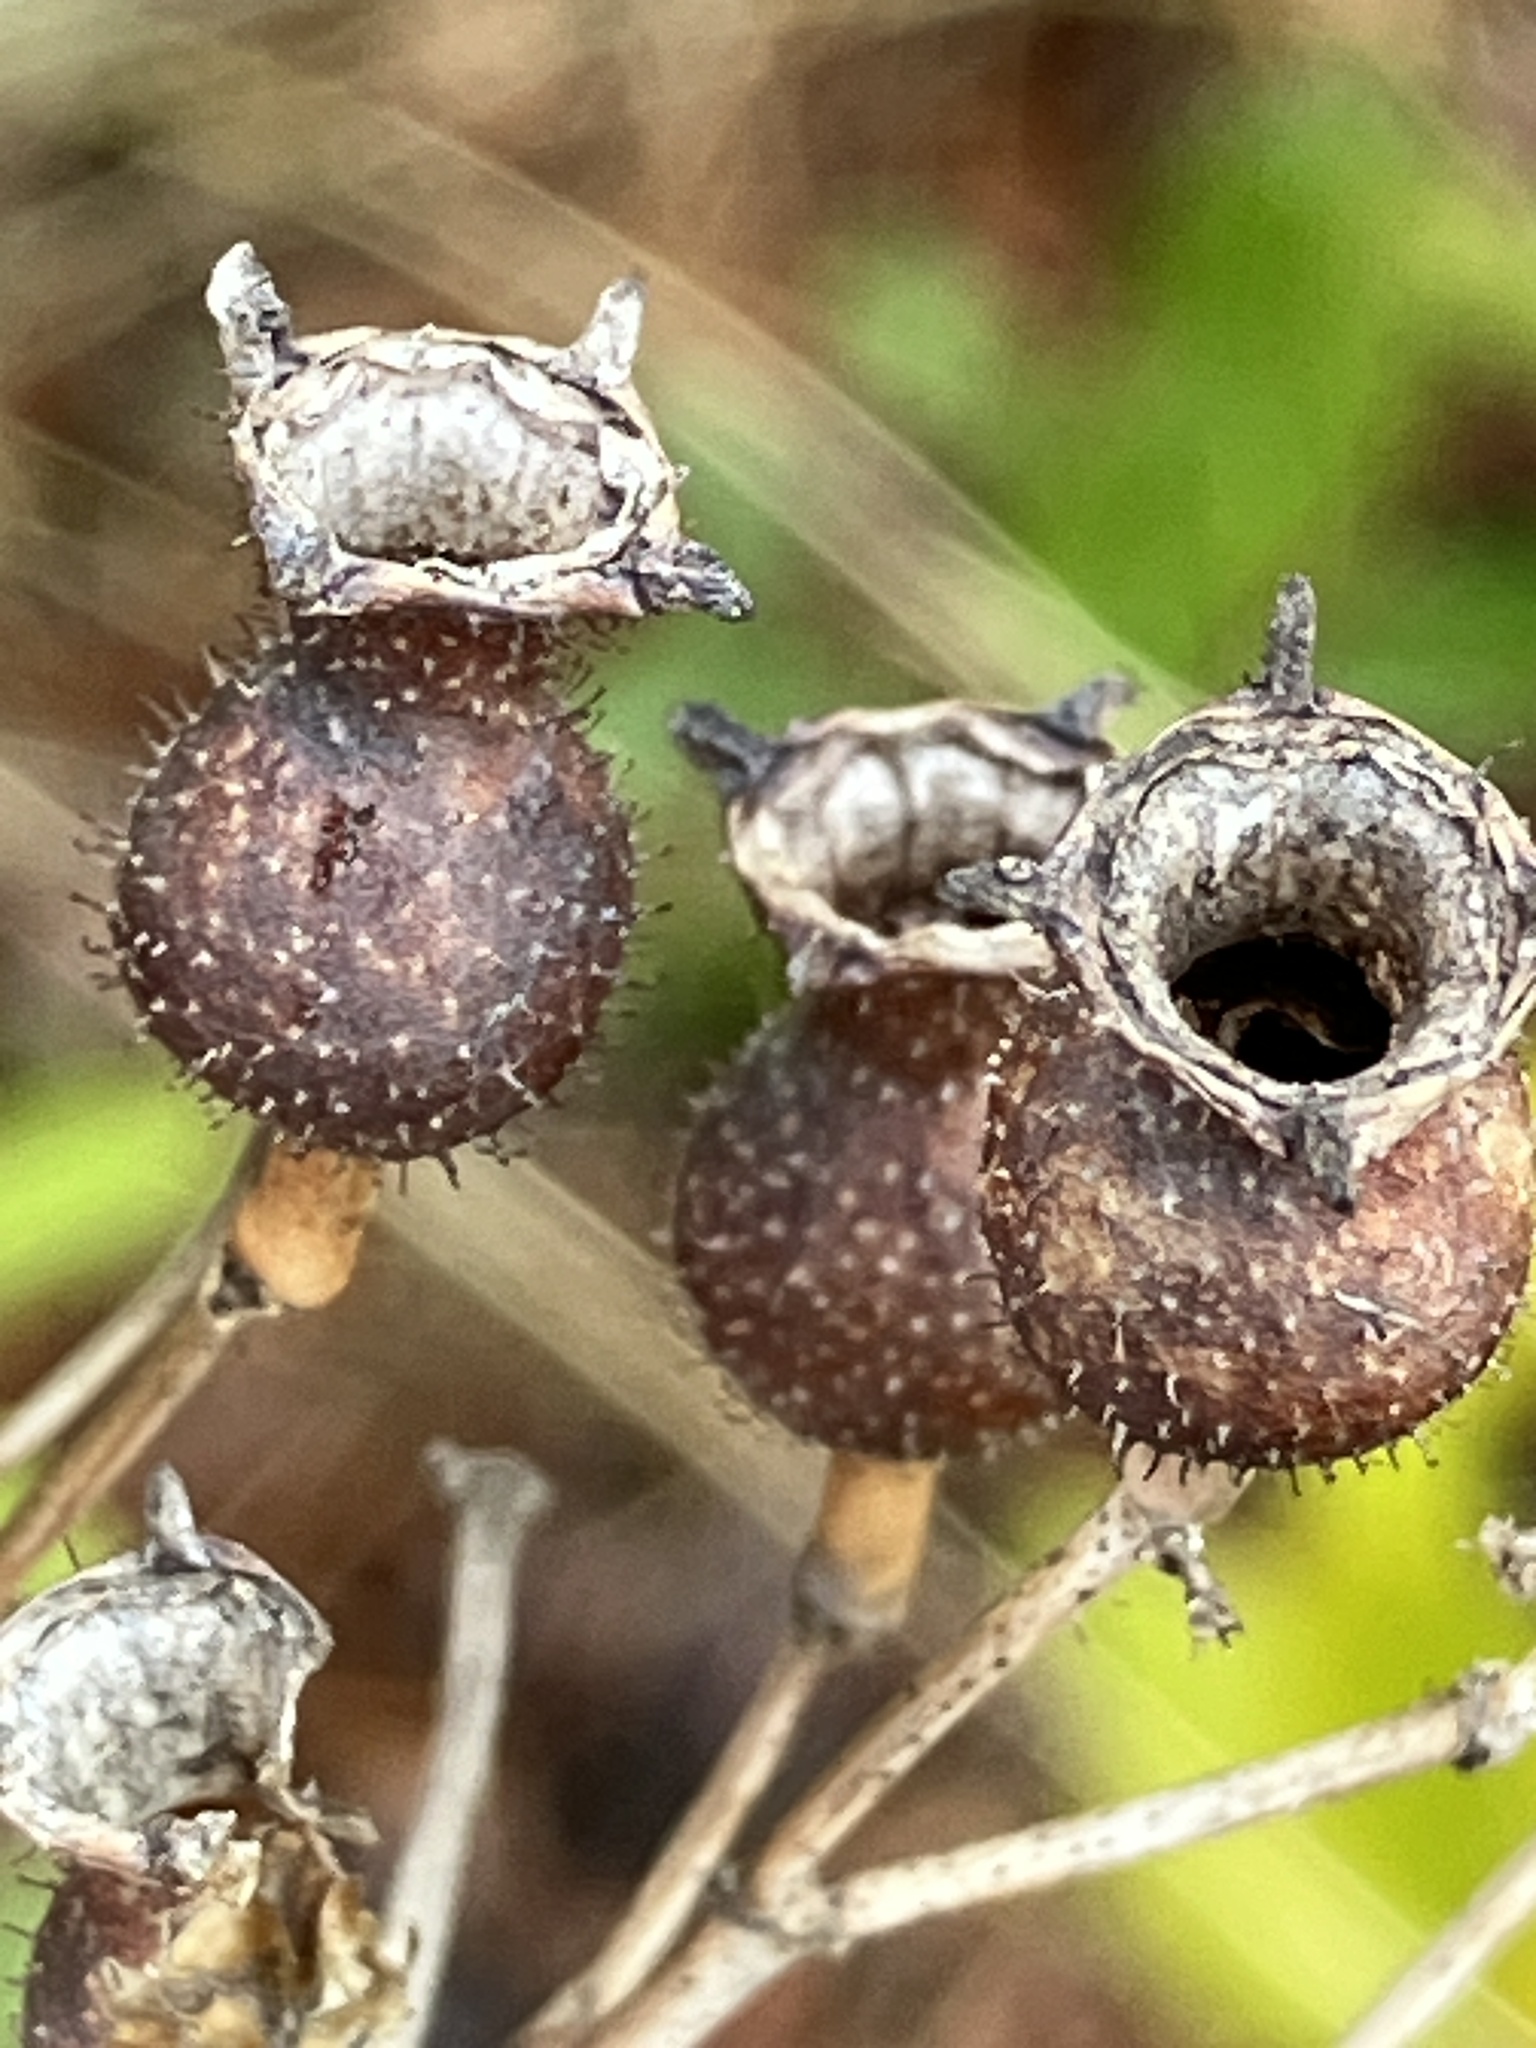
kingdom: Plantae
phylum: Tracheophyta
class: Magnoliopsida
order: Myrtales
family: Melastomataceae
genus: Rhexia
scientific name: Rhexia alifanus
